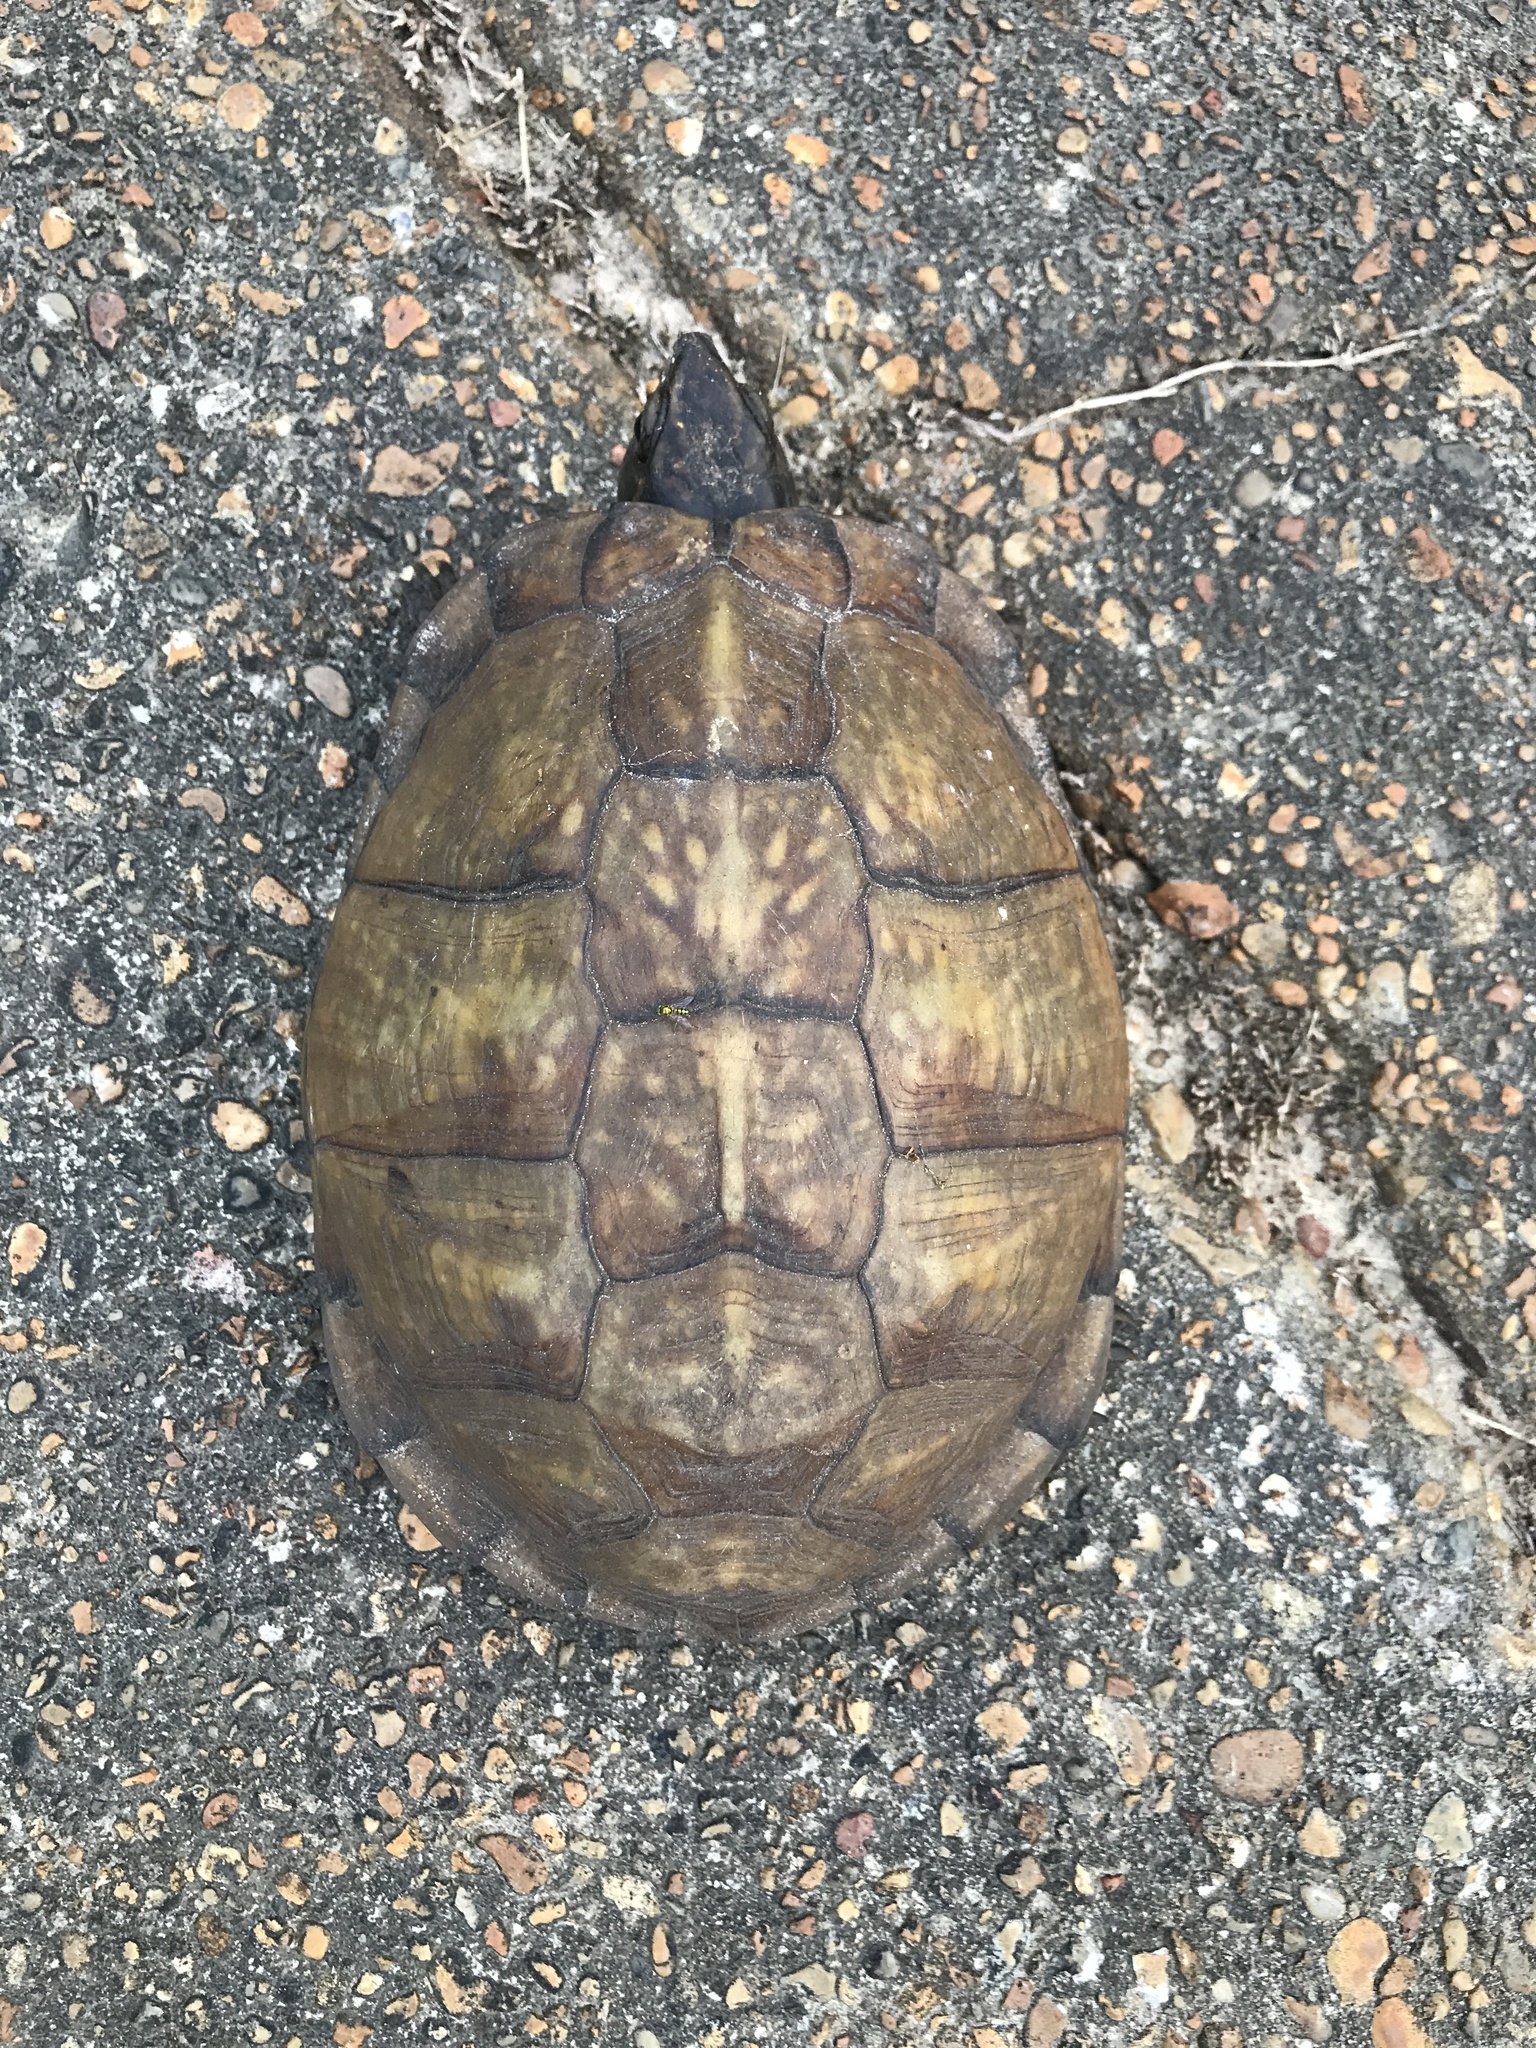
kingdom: Animalia
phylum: Chordata
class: Testudines
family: Emydidae
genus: Terrapene
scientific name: Terrapene carolina
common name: Common box turtle
